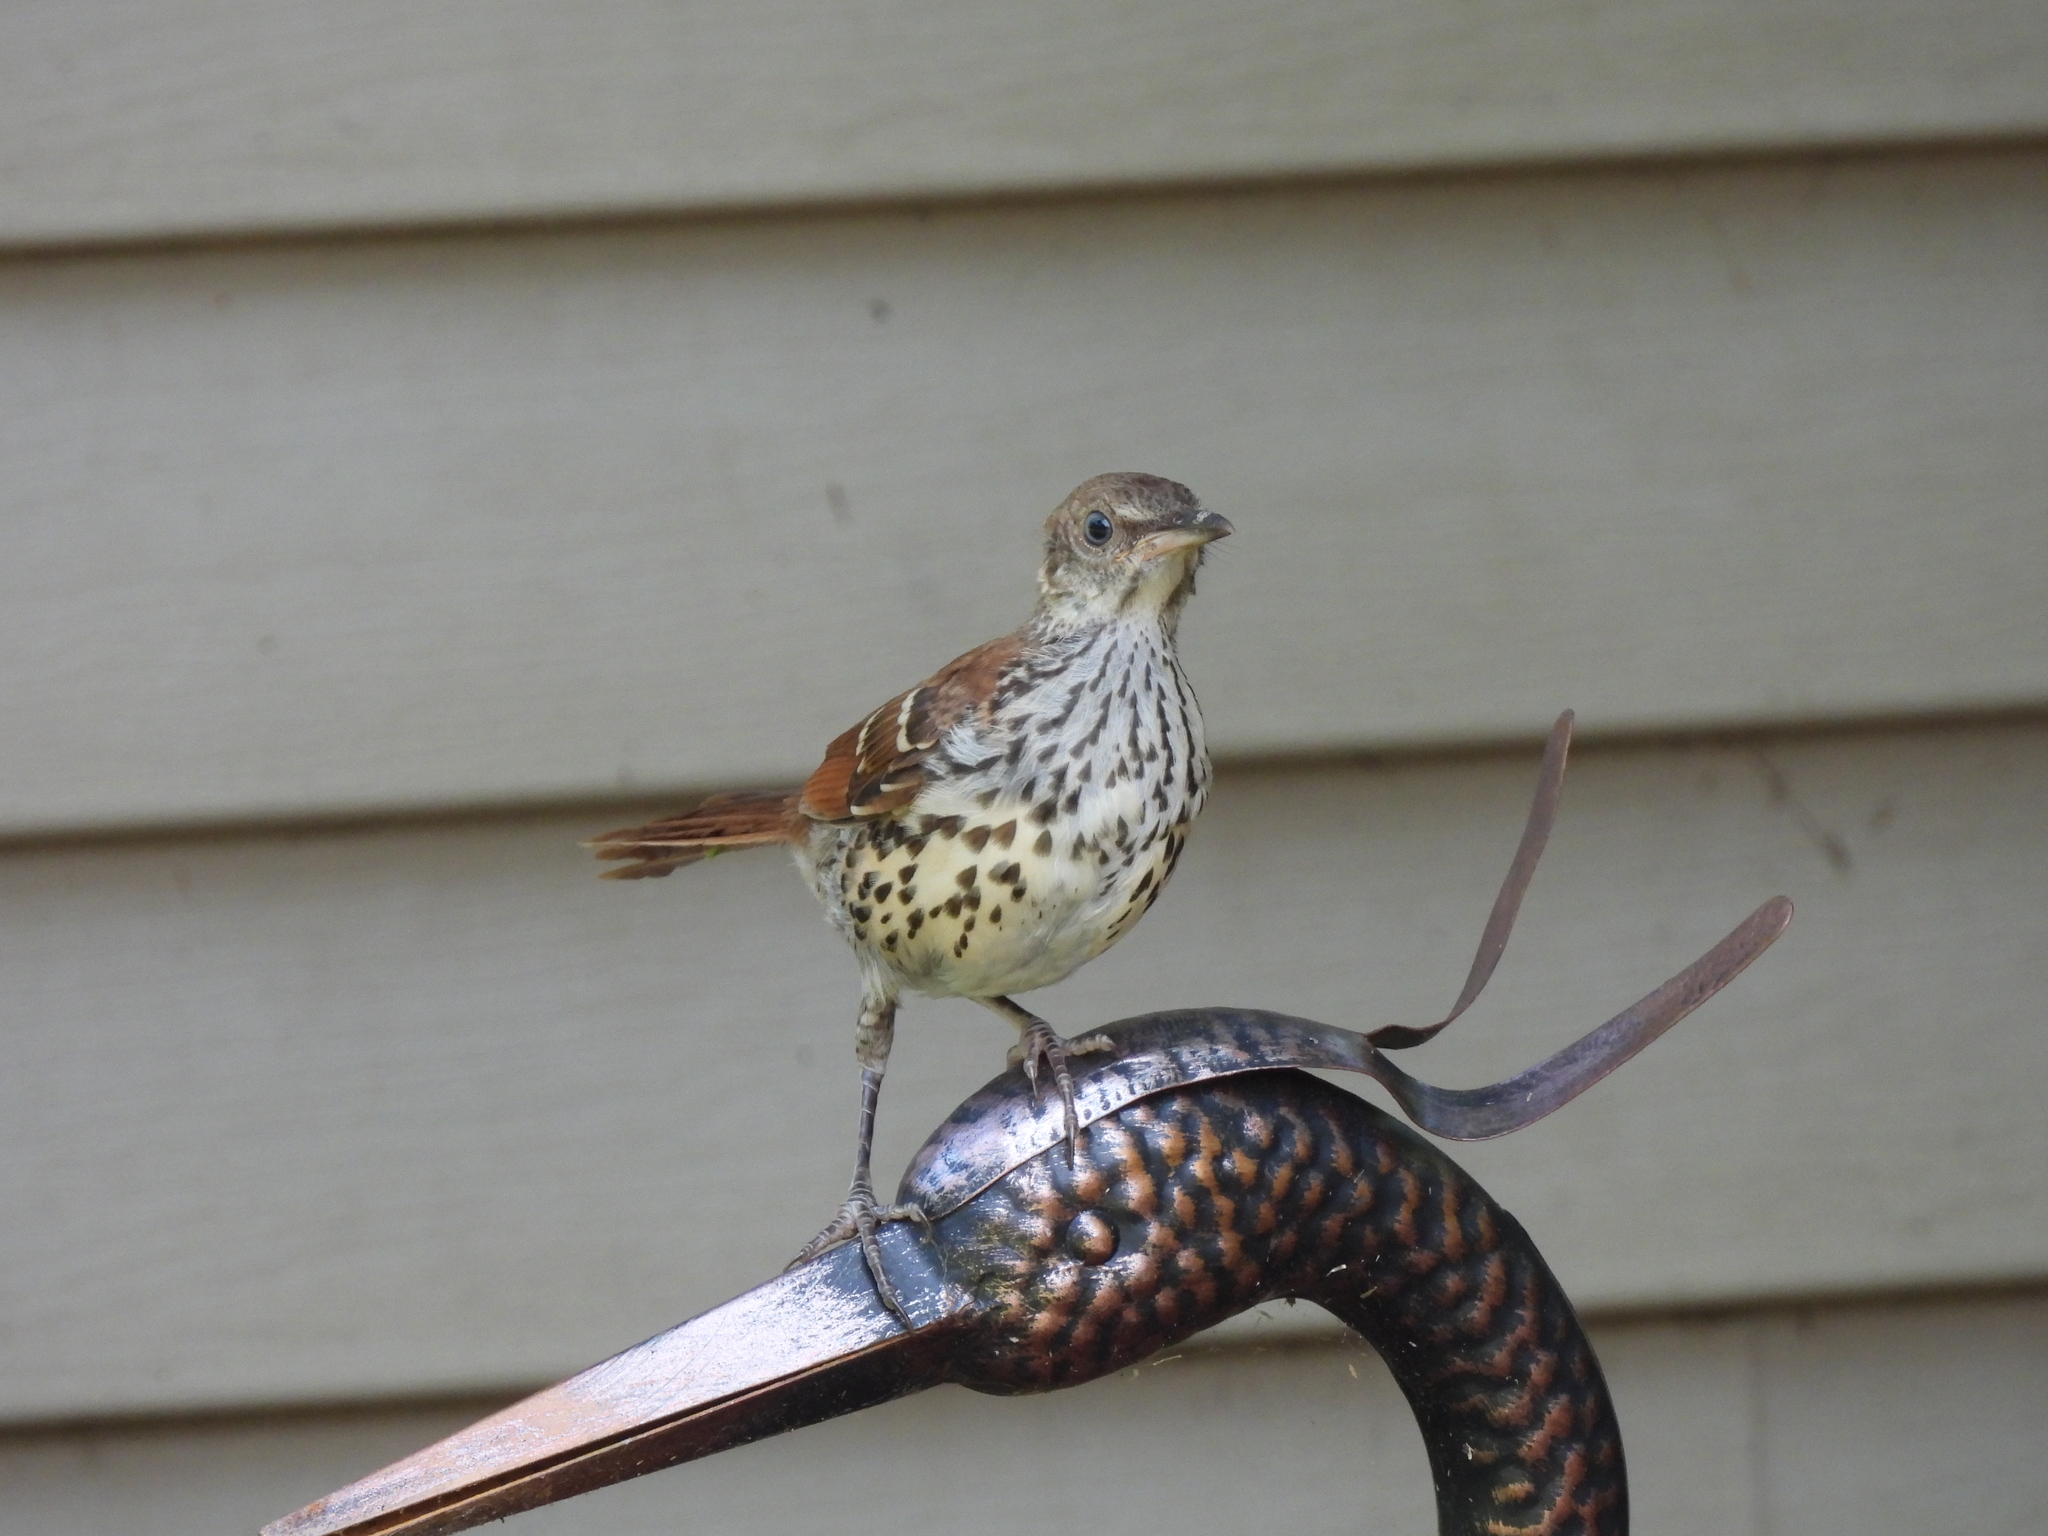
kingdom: Animalia
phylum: Chordata
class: Aves
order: Passeriformes
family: Mimidae
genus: Toxostoma
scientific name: Toxostoma rufum
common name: Brown thrasher
